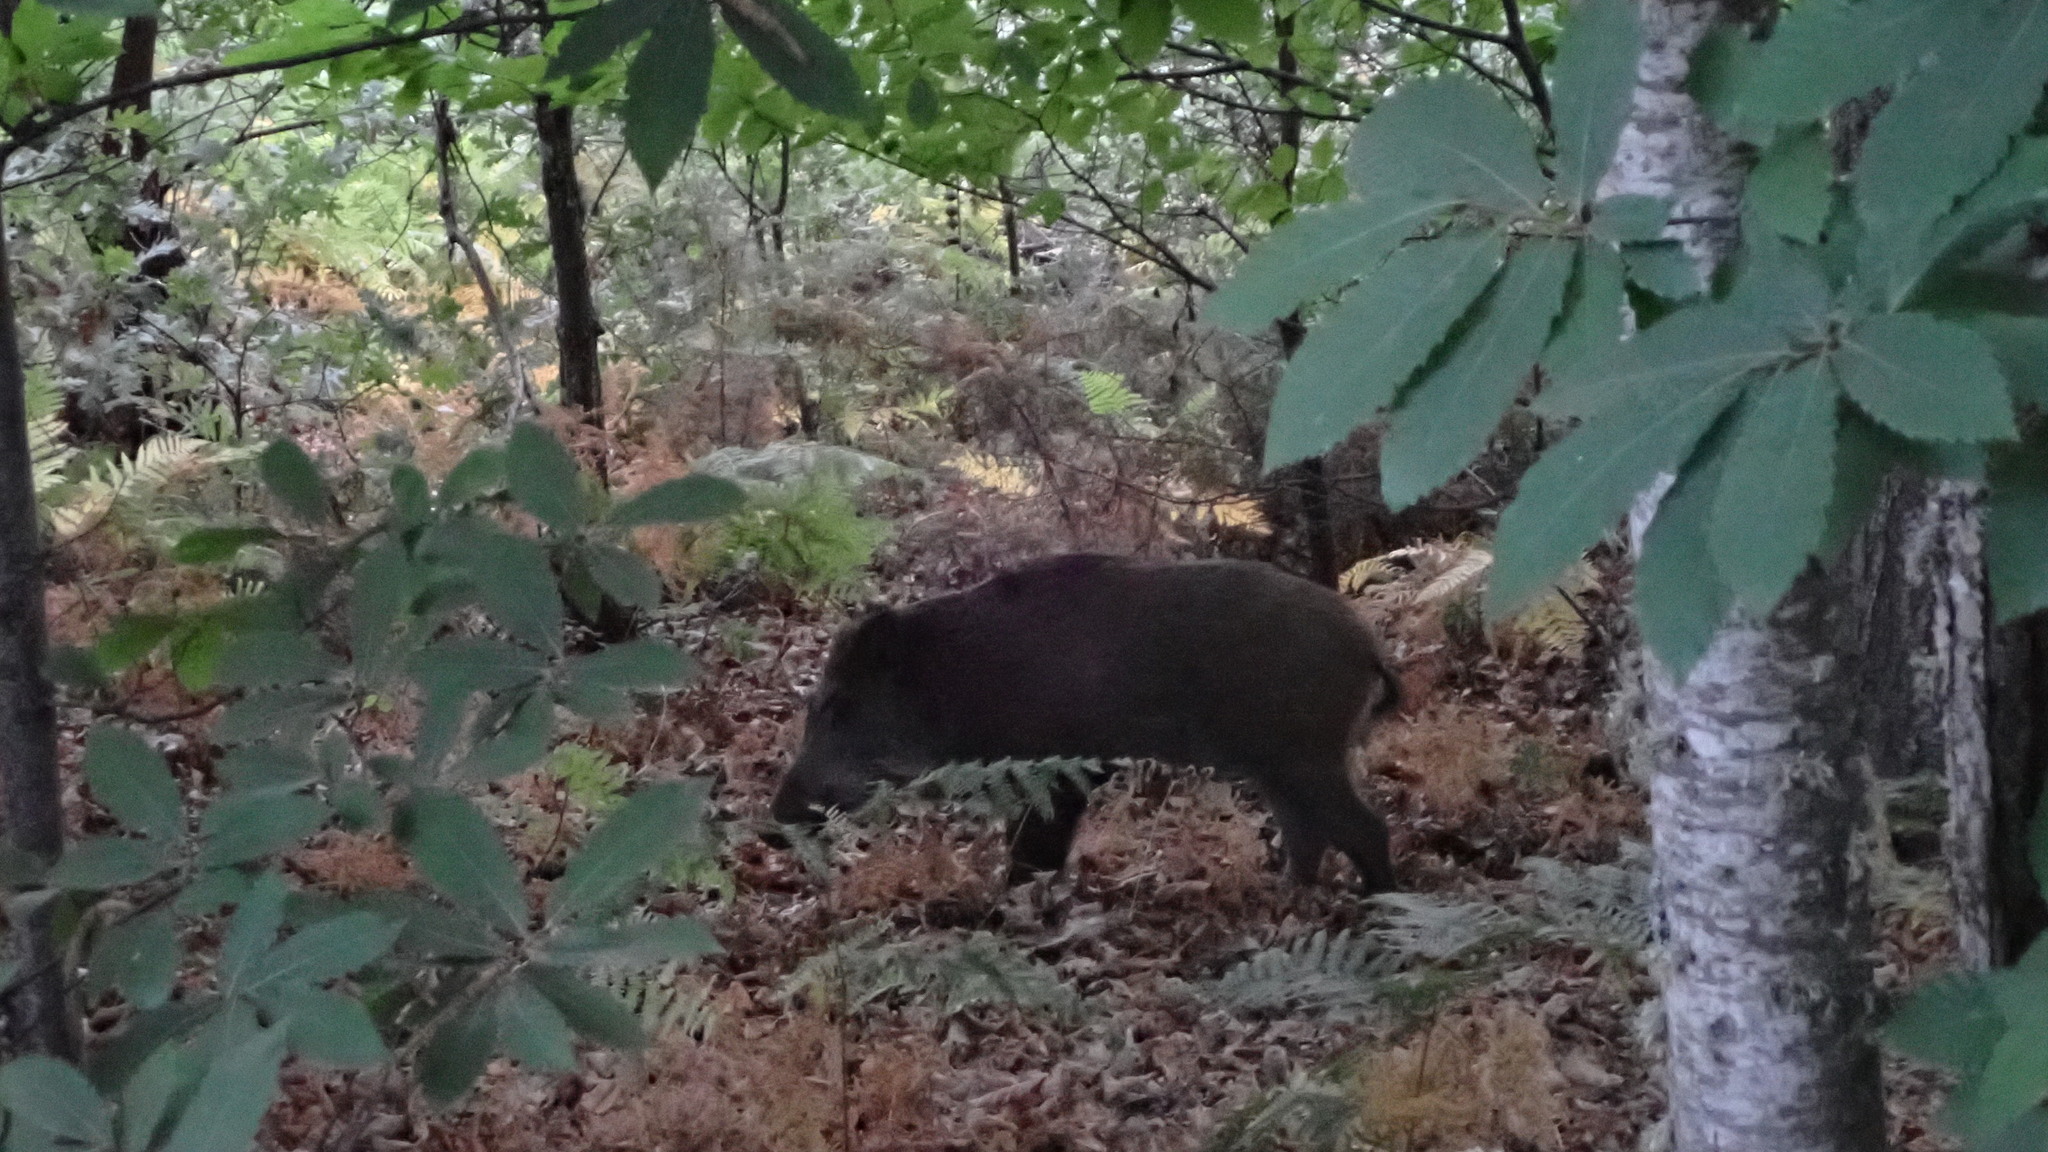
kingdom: Animalia
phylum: Chordata
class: Mammalia
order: Artiodactyla
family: Suidae
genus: Sus
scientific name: Sus scrofa
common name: Wild boar
